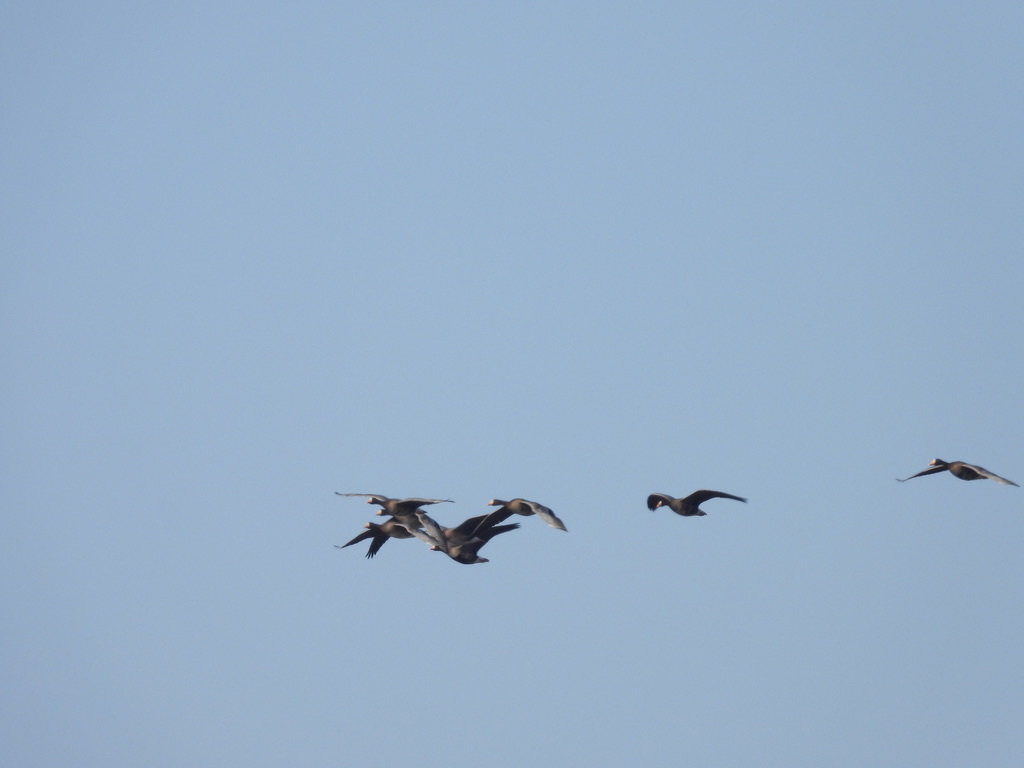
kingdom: Animalia
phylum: Chordata
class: Aves
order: Anseriformes
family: Anatidae
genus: Anser
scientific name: Anser albifrons
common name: Greater white-fronted goose
